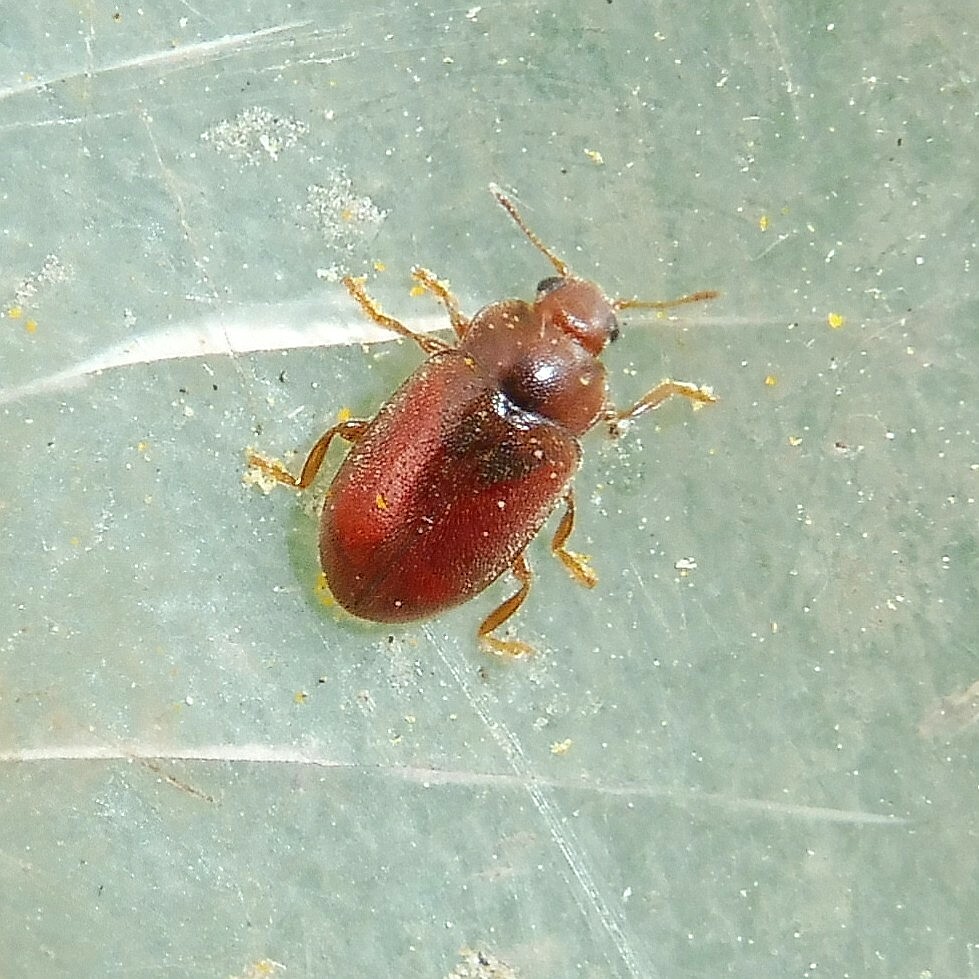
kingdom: Animalia
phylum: Arthropoda
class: Insecta
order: Coleoptera
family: Coccinellidae
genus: Coccidula
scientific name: Coccidula rufa
